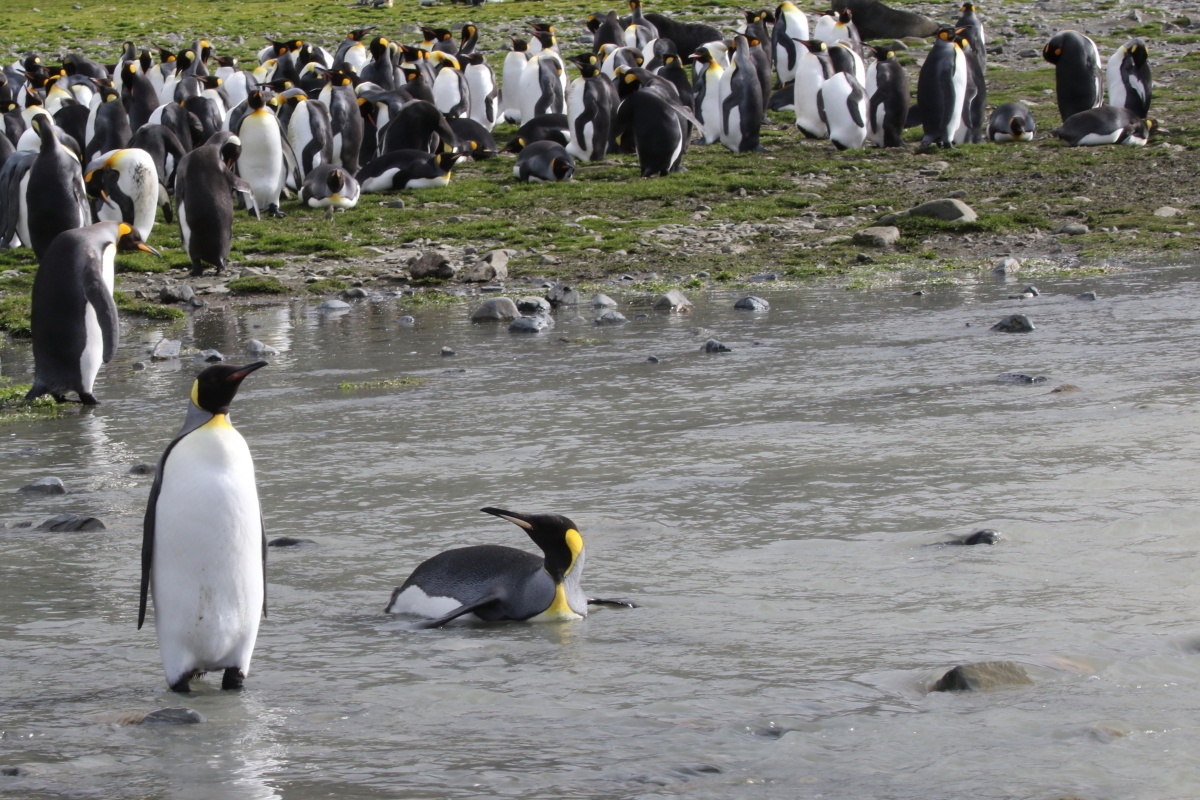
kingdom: Animalia
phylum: Chordata
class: Aves
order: Sphenisciformes
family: Spheniscidae
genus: Aptenodytes
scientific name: Aptenodytes patagonicus
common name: King penguin
